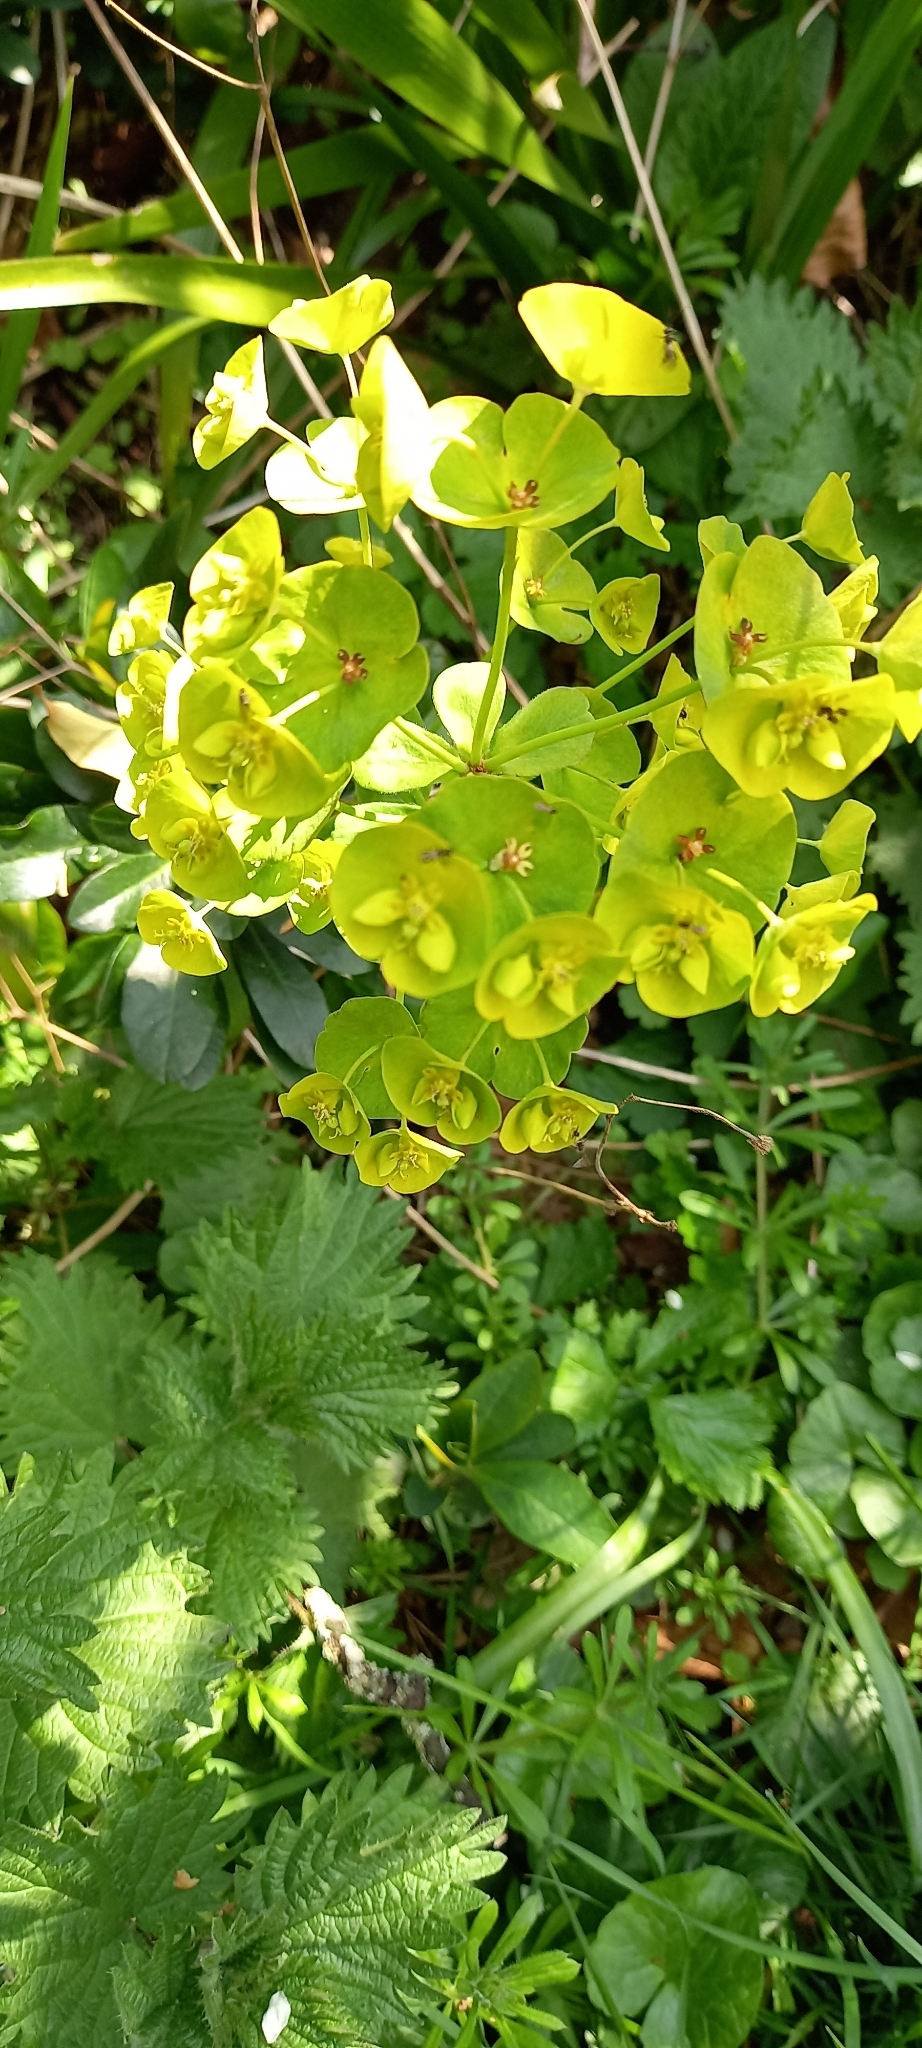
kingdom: Plantae
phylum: Tracheophyta
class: Magnoliopsida
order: Malpighiales
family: Euphorbiaceae
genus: Euphorbia
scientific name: Euphorbia amygdaloides
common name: Wood spurge
